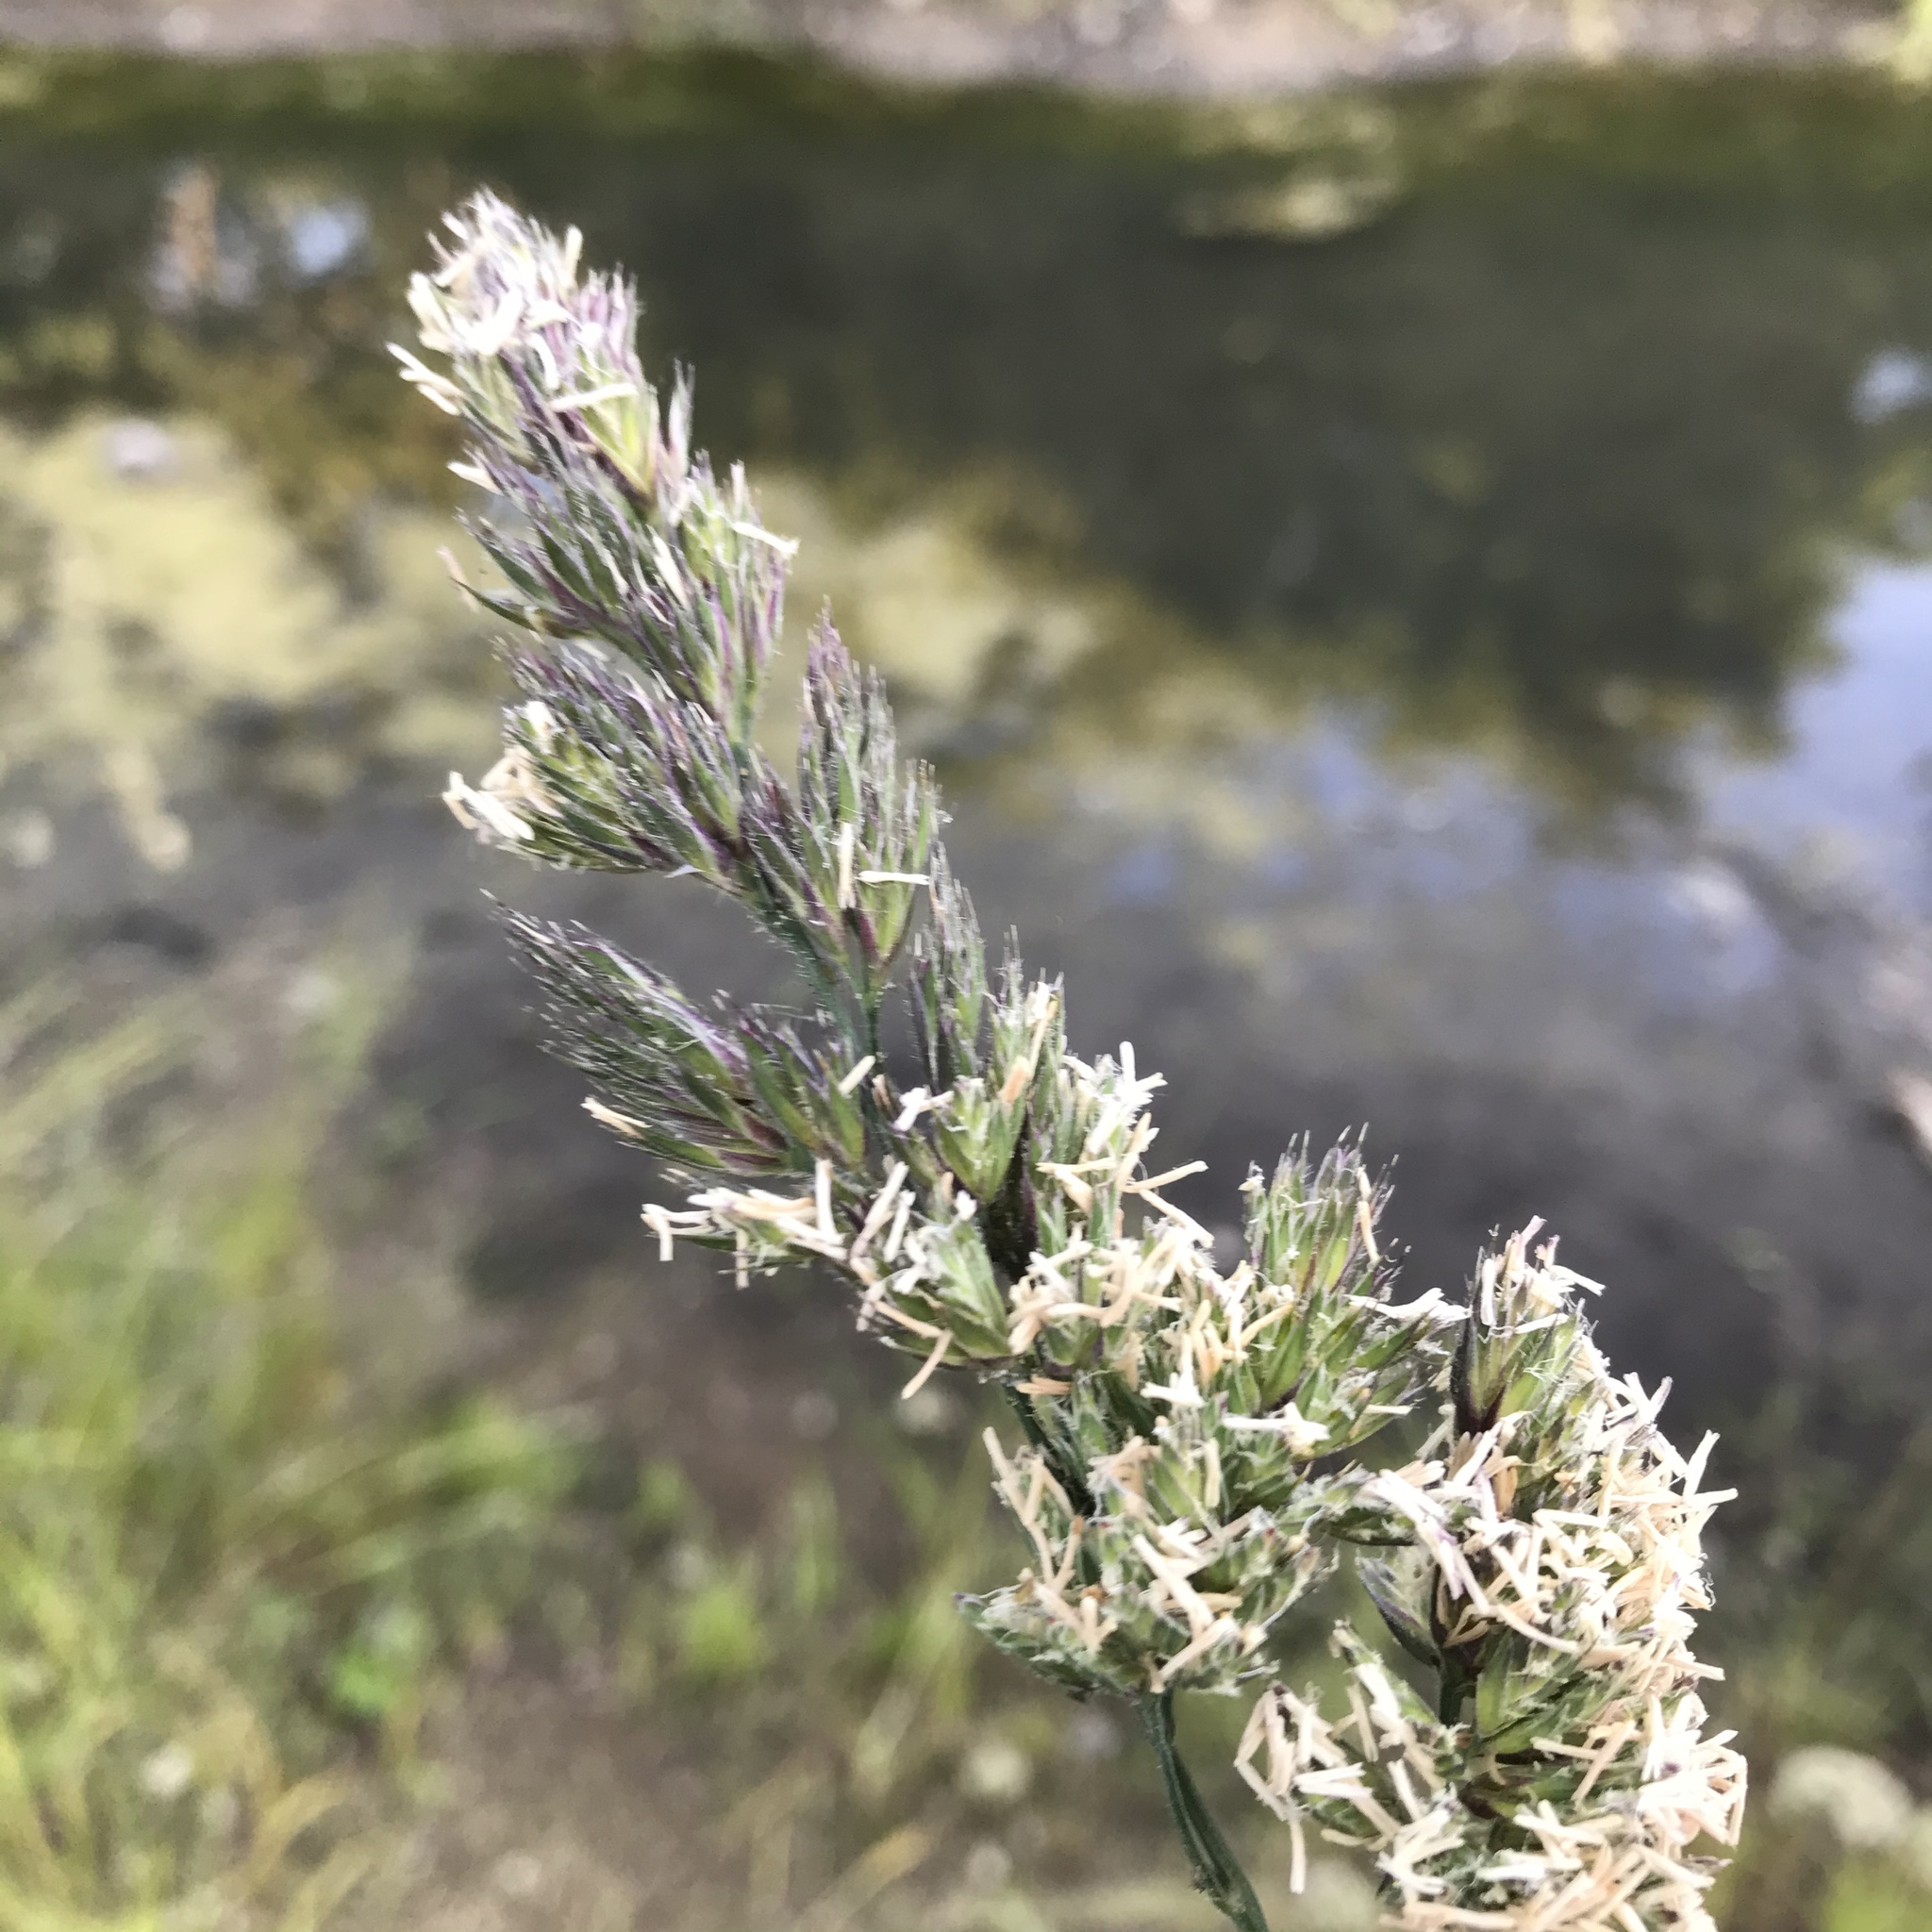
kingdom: Plantae
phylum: Tracheophyta
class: Liliopsida
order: Poales
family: Poaceae
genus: Dactylis
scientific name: Dactylis glomerata
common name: Orchardgrass
